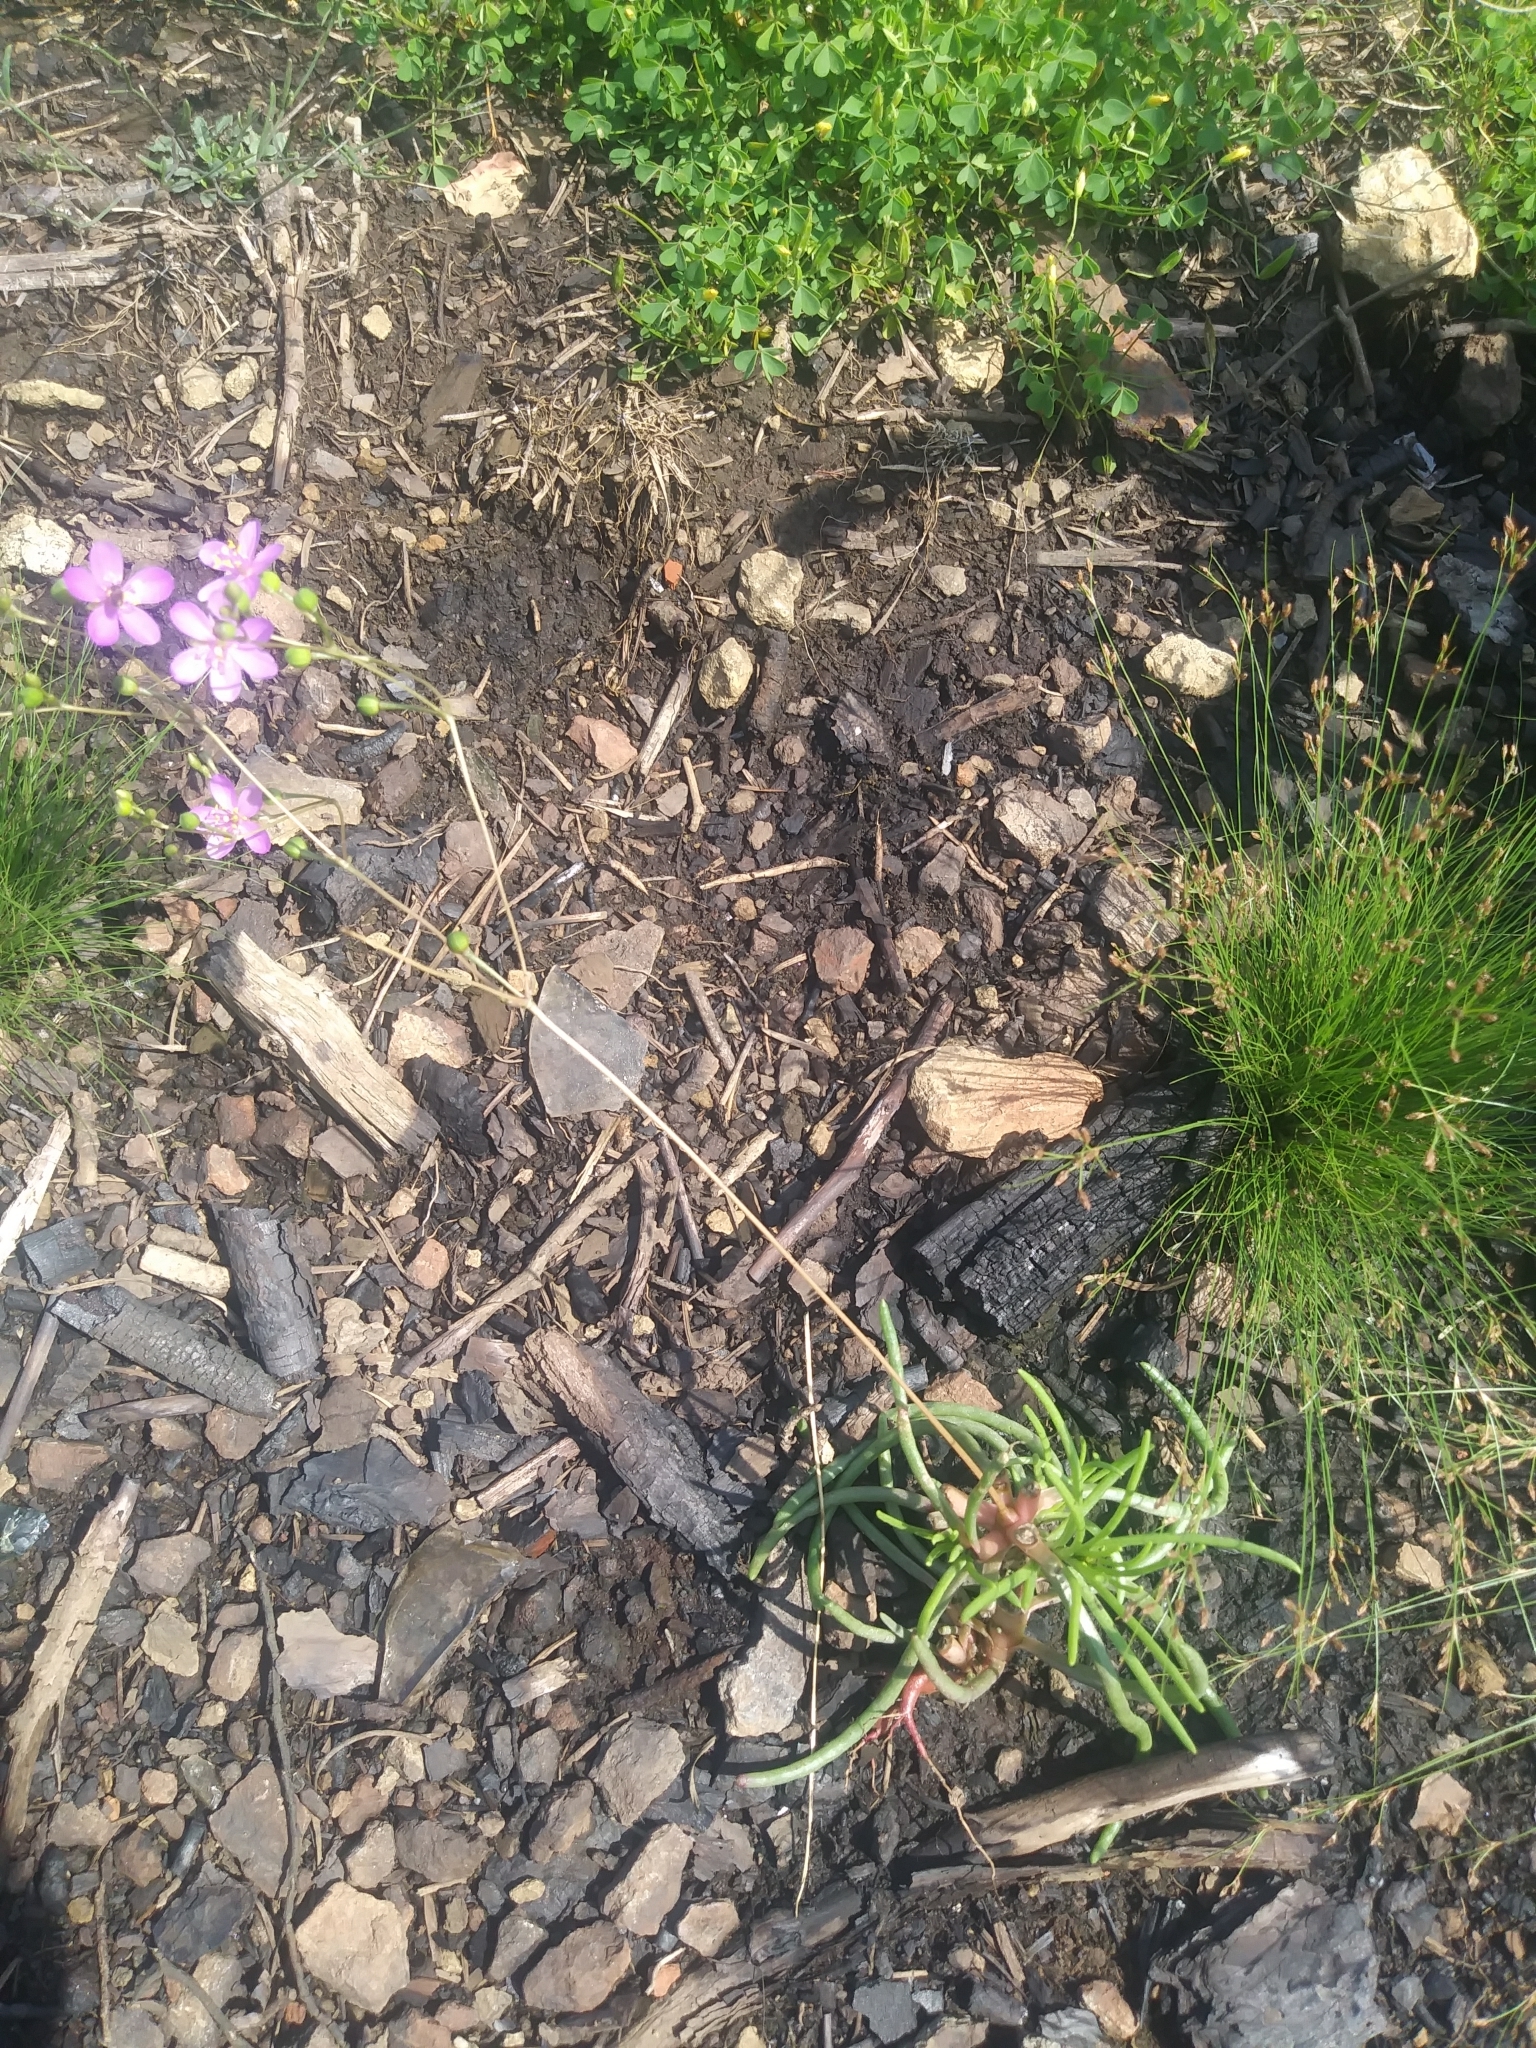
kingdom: Plantae
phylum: Tracheophyta
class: Magnoliopsida
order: Caryophyllales
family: Montiaceae
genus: Phemeranthus
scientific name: Phemeranthus teretifolius
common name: Quill fameflower
